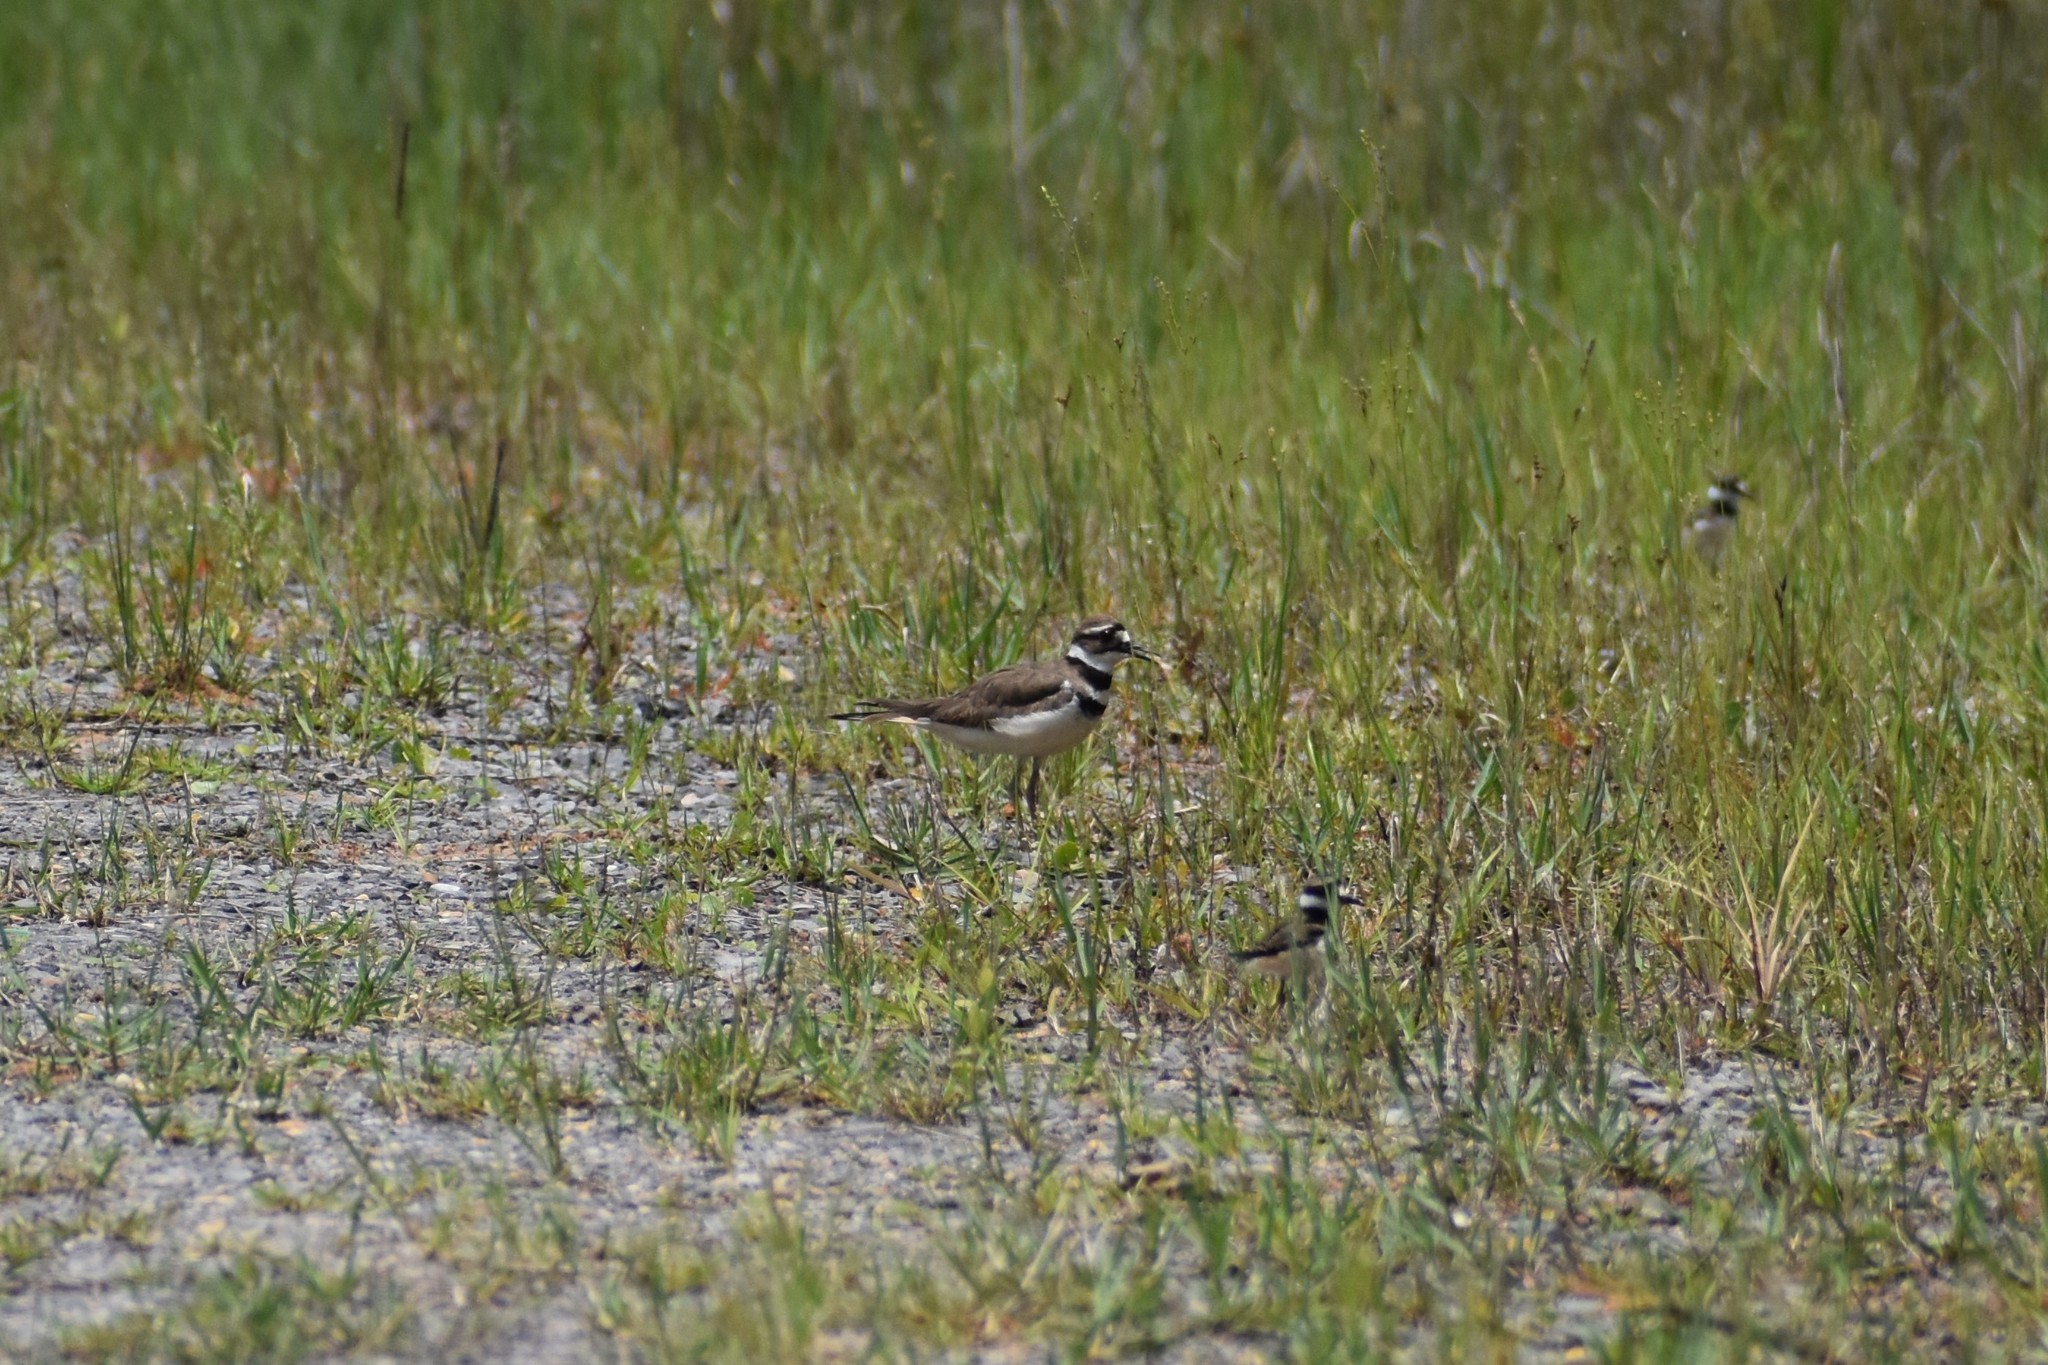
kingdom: Animalia
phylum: Chordata
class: Aves
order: Charadriiformes
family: Charadriidae
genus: Charadrius
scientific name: Charadrius vociferus
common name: Killdeer
